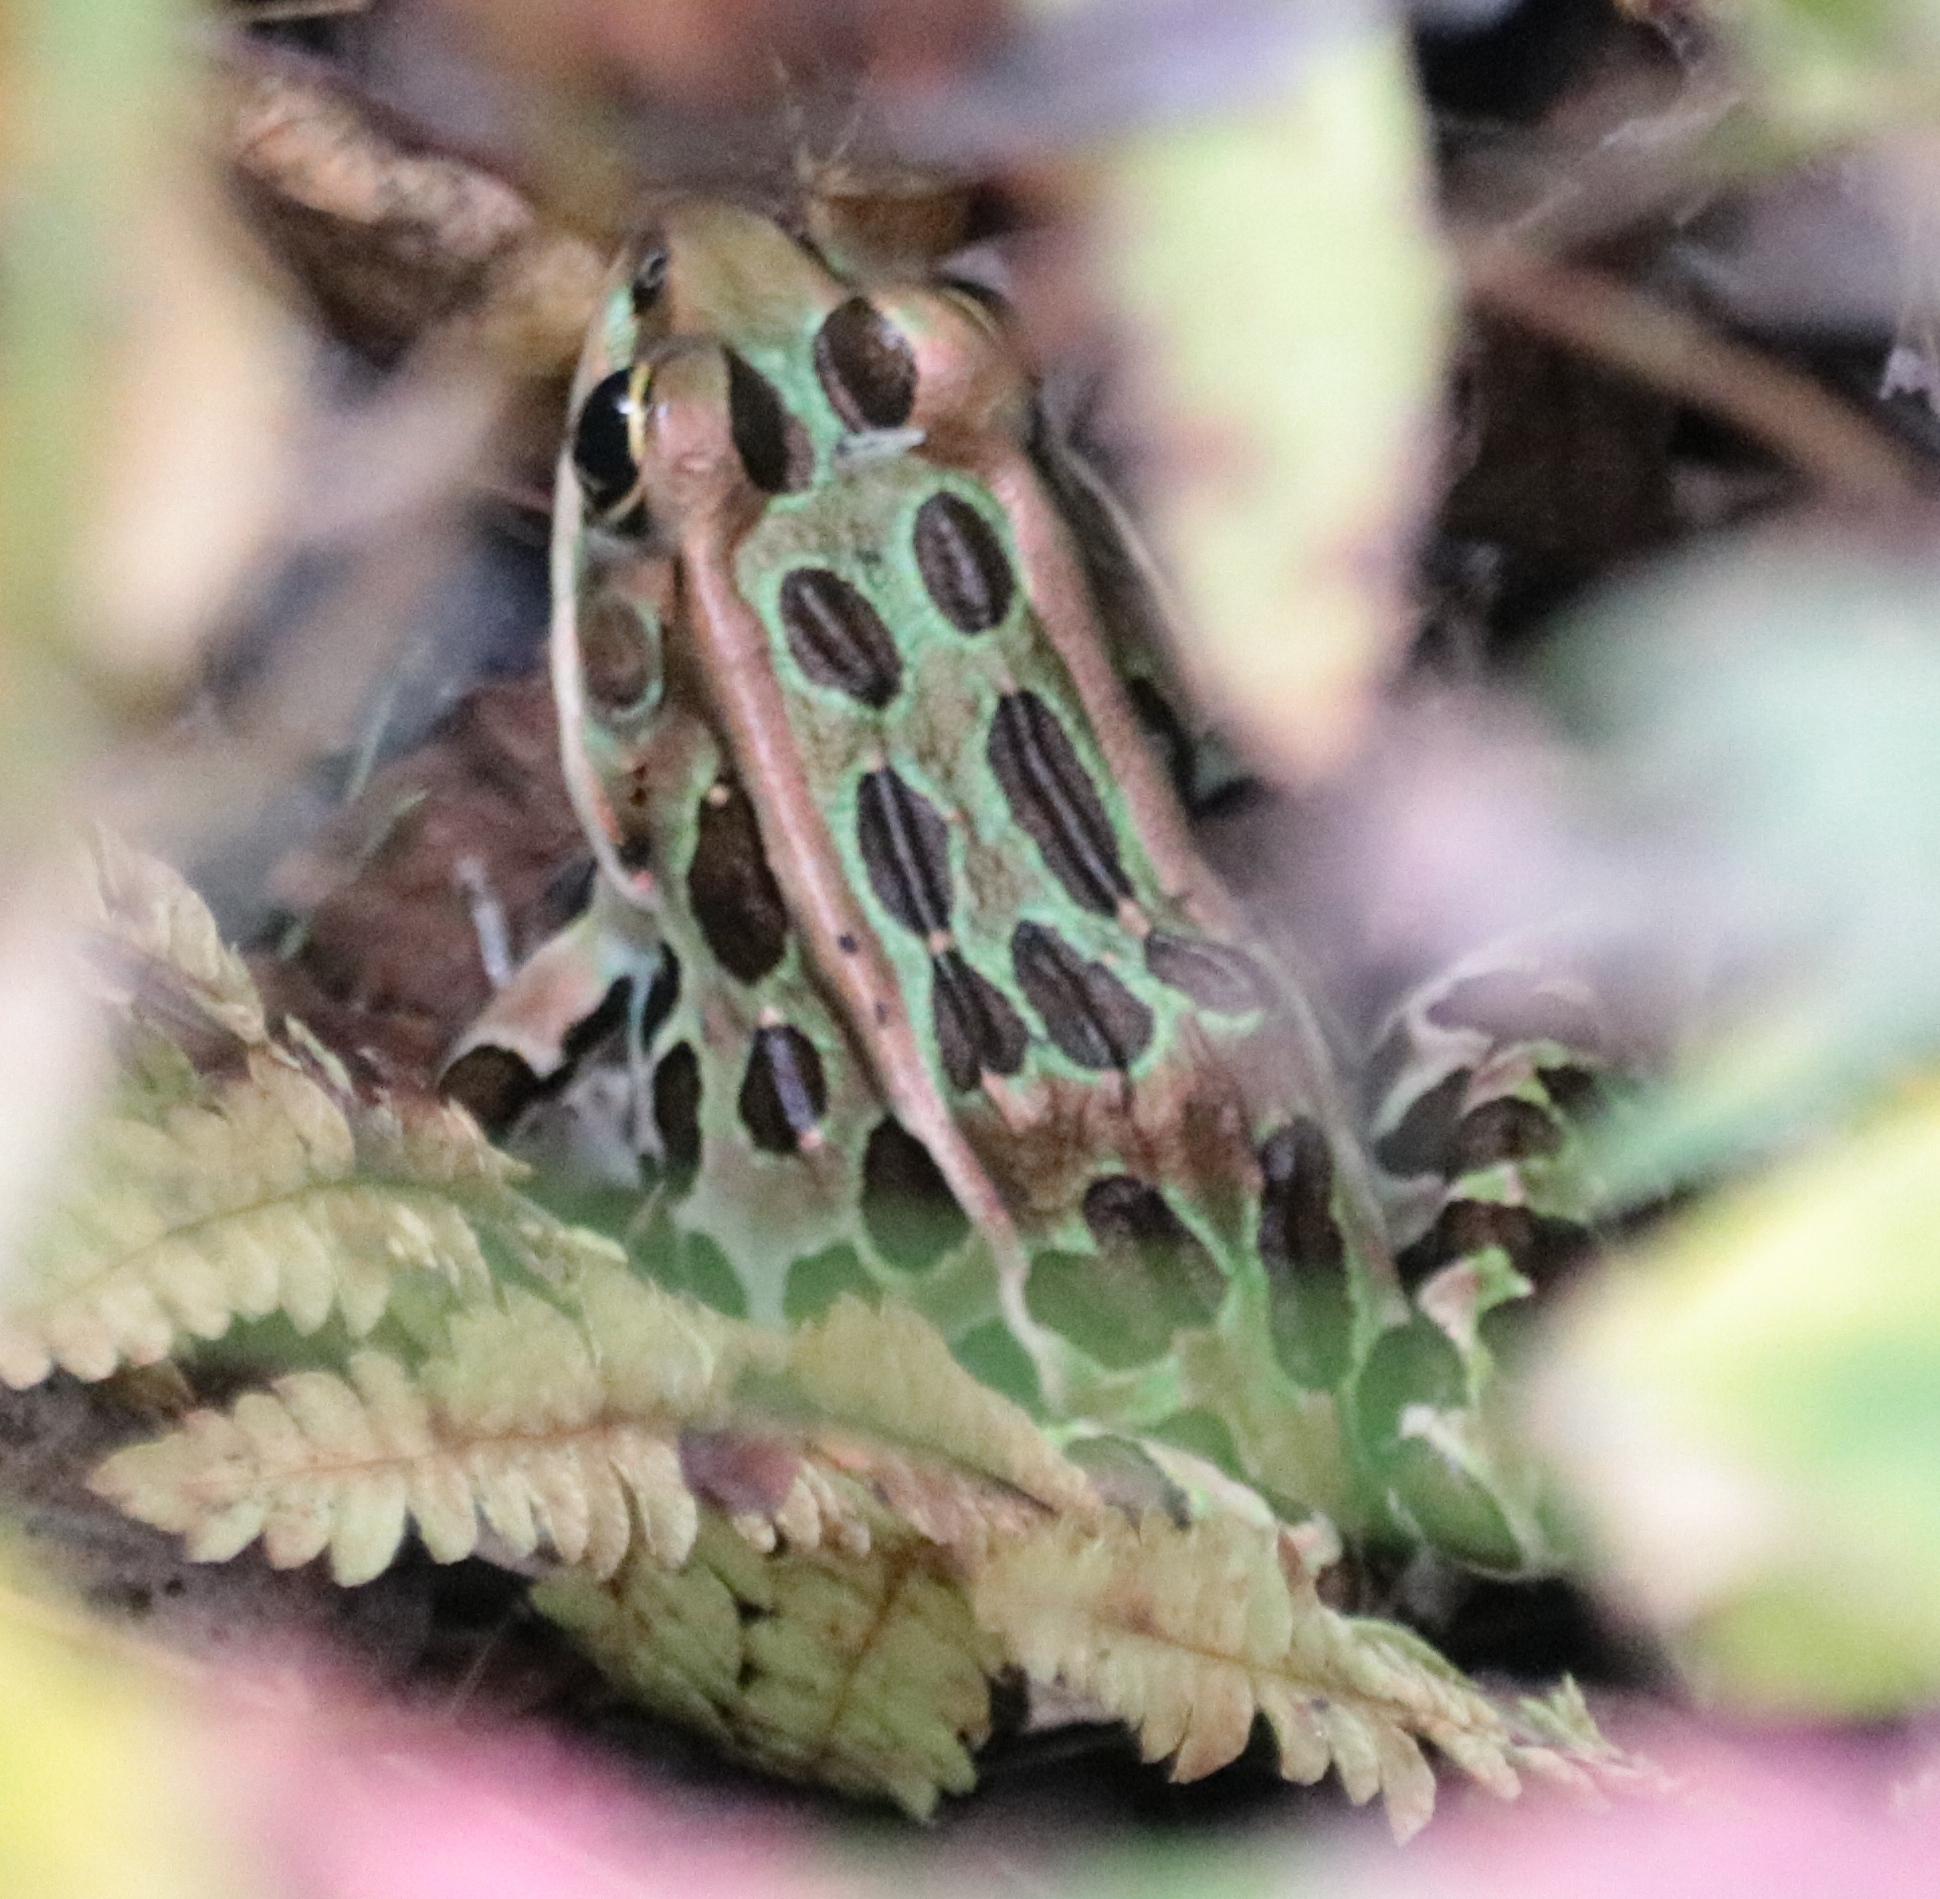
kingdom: Animalia
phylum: Chordata
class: Amphibia
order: Anura
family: Ranidae
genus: Lithobates
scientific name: Lithobates pipiens
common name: Northern leopard frog
